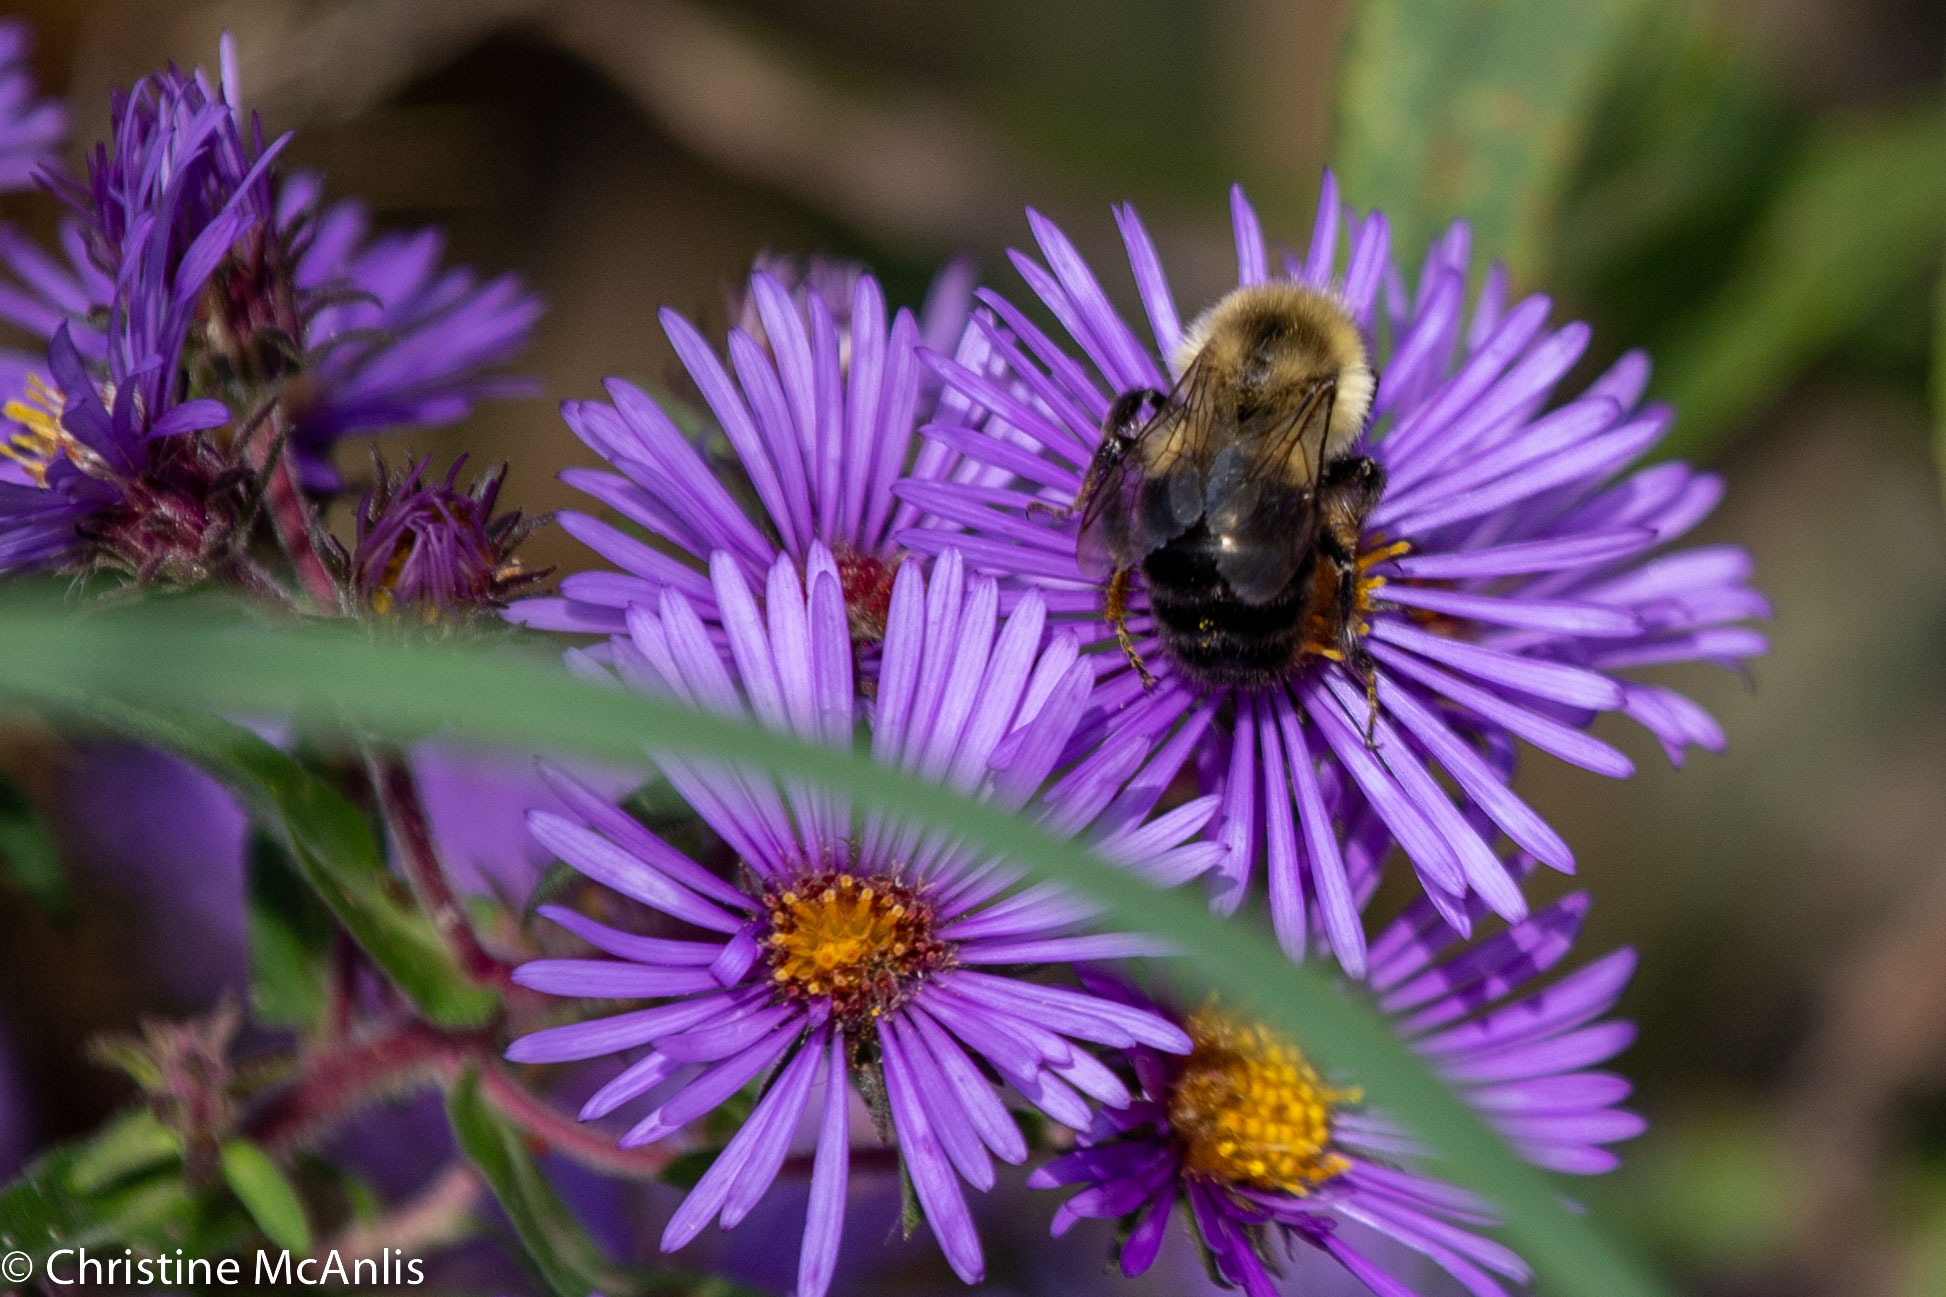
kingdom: Animalia
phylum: Arthropoda
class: Insecta
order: Hymenoptera
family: Apidae
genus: Bombus
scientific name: Bombus impatiens
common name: Common eastern bumble bee
